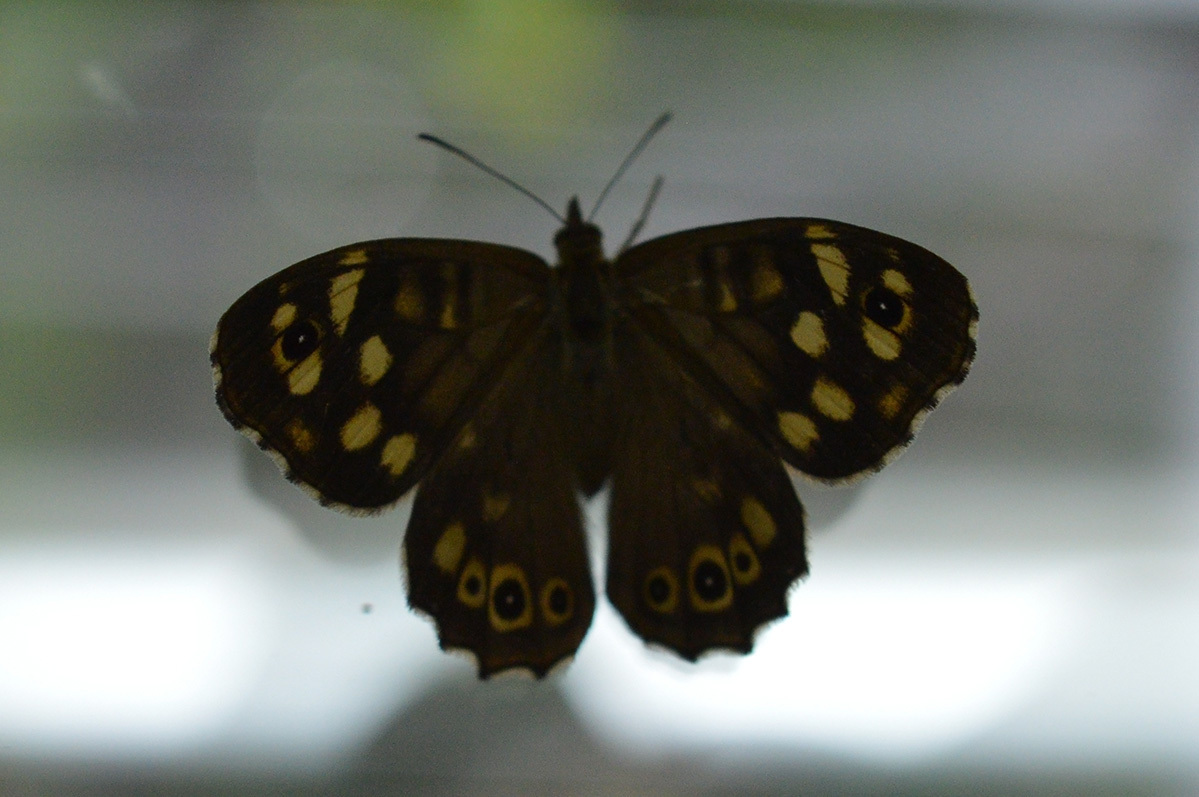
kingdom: Animalia
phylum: Arthropoda
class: Insecta
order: Lepidoptera
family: Nymphalidae
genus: Pararge
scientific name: Pararge aegeria
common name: Speckled wood
